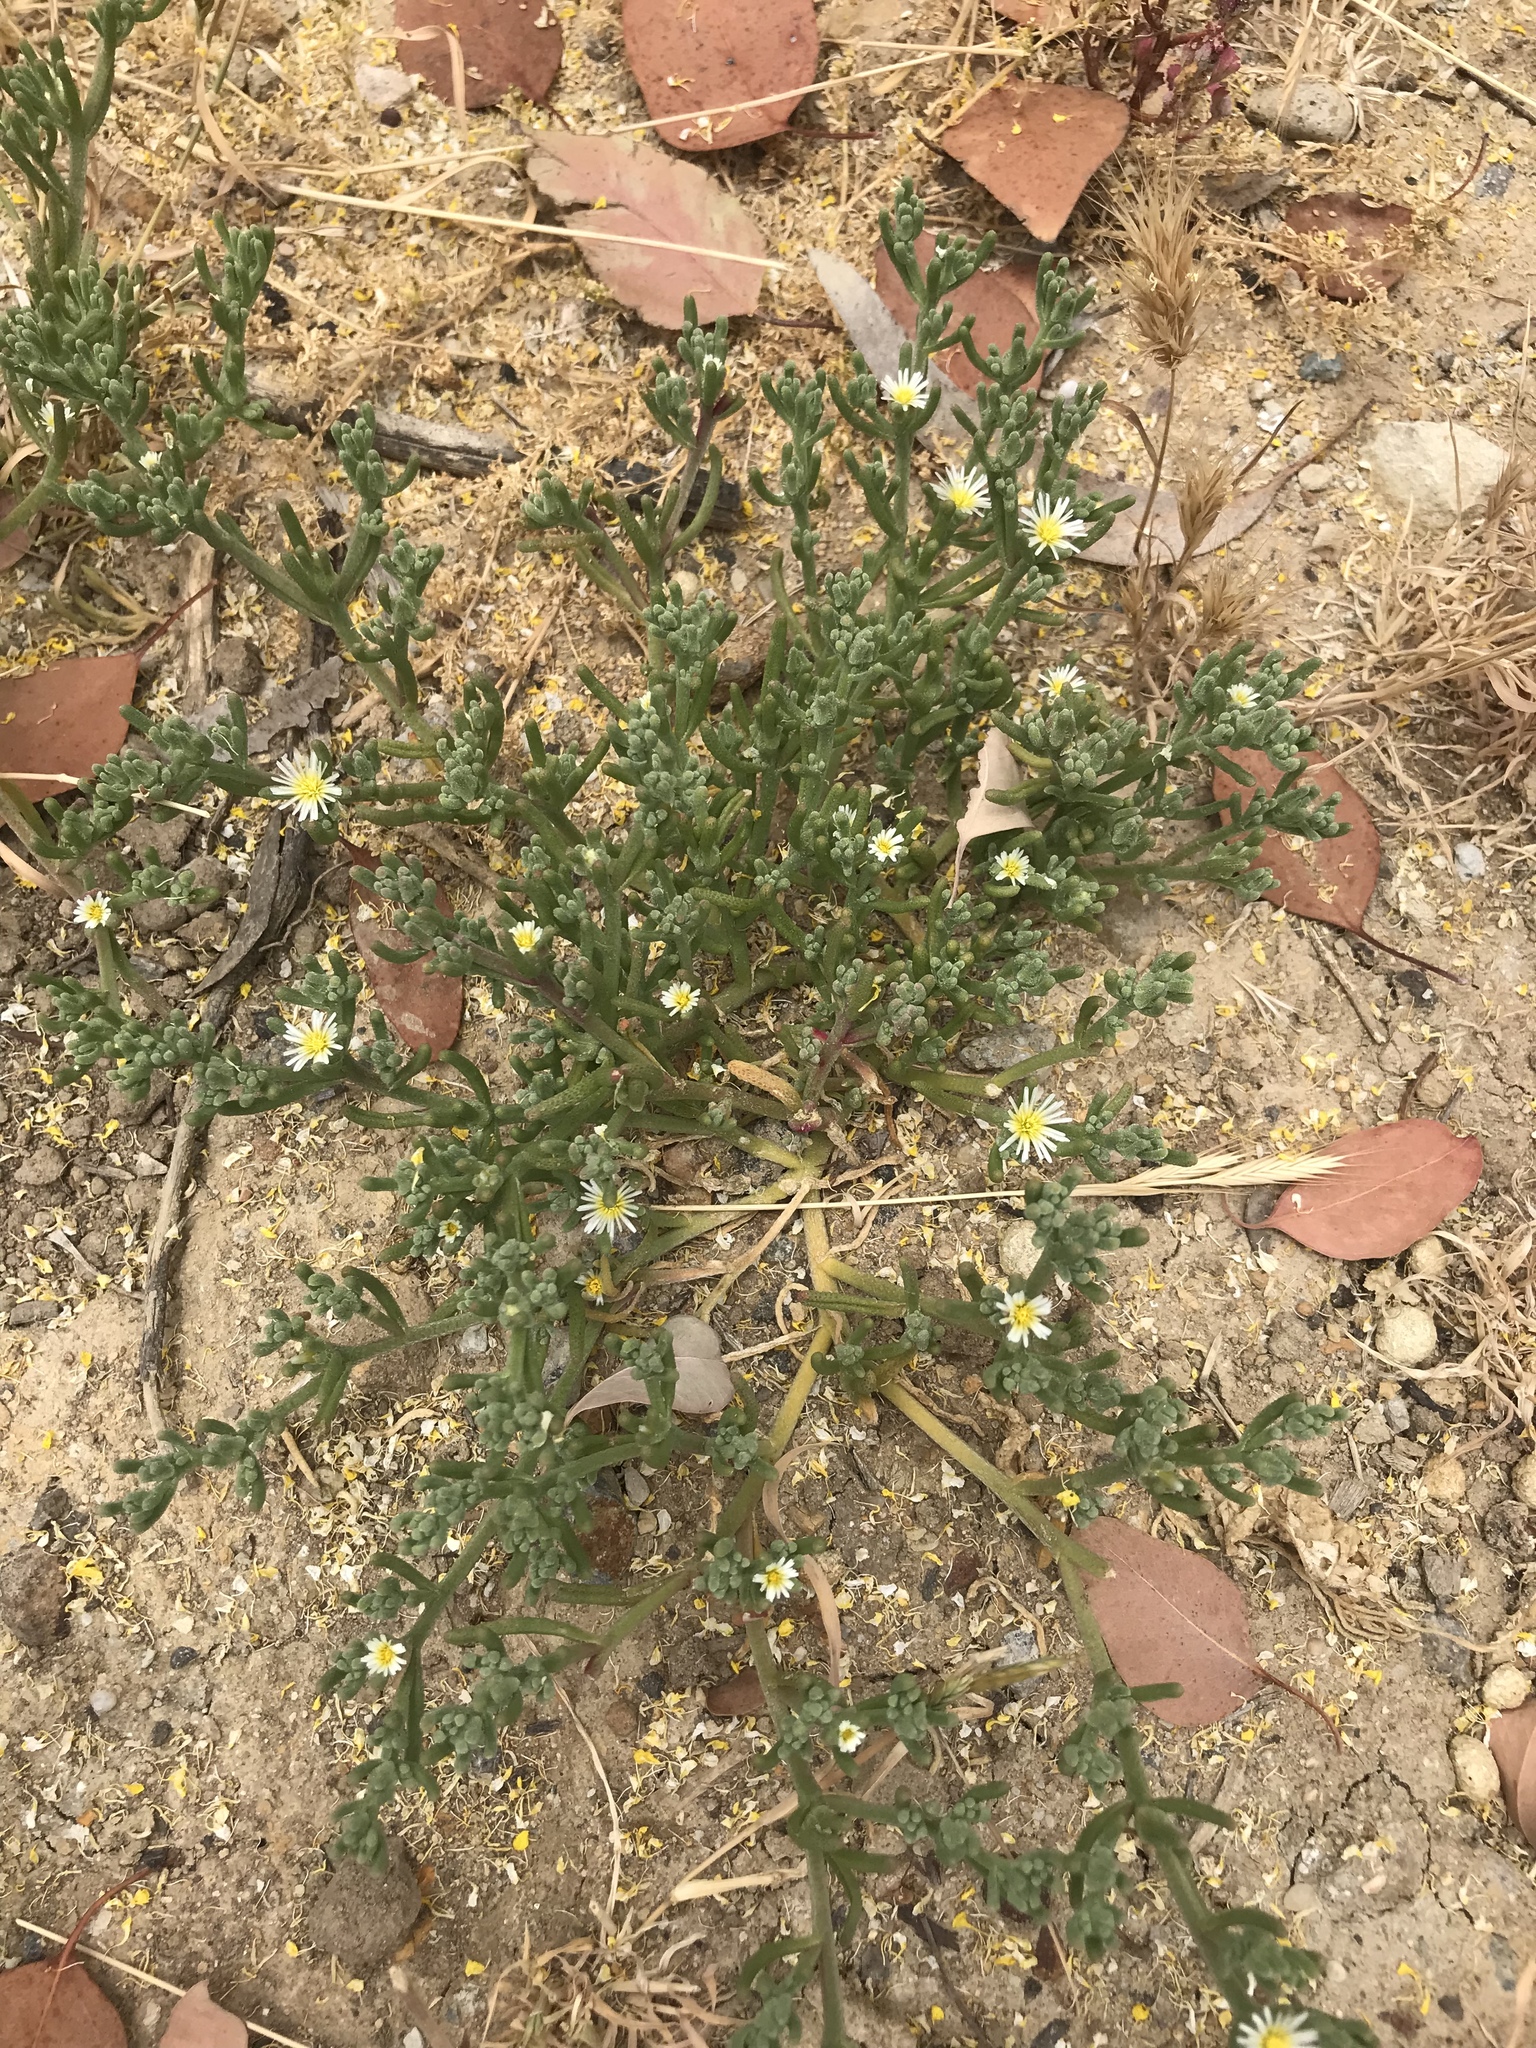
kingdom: Plantae
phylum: Tracheophyta
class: Magnoliopsida
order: Caryophyllales
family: Aizoaceae
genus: Mesembryanthemum
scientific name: Mesembryanthemum nodiflorum
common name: Slenderleaf iceplant
